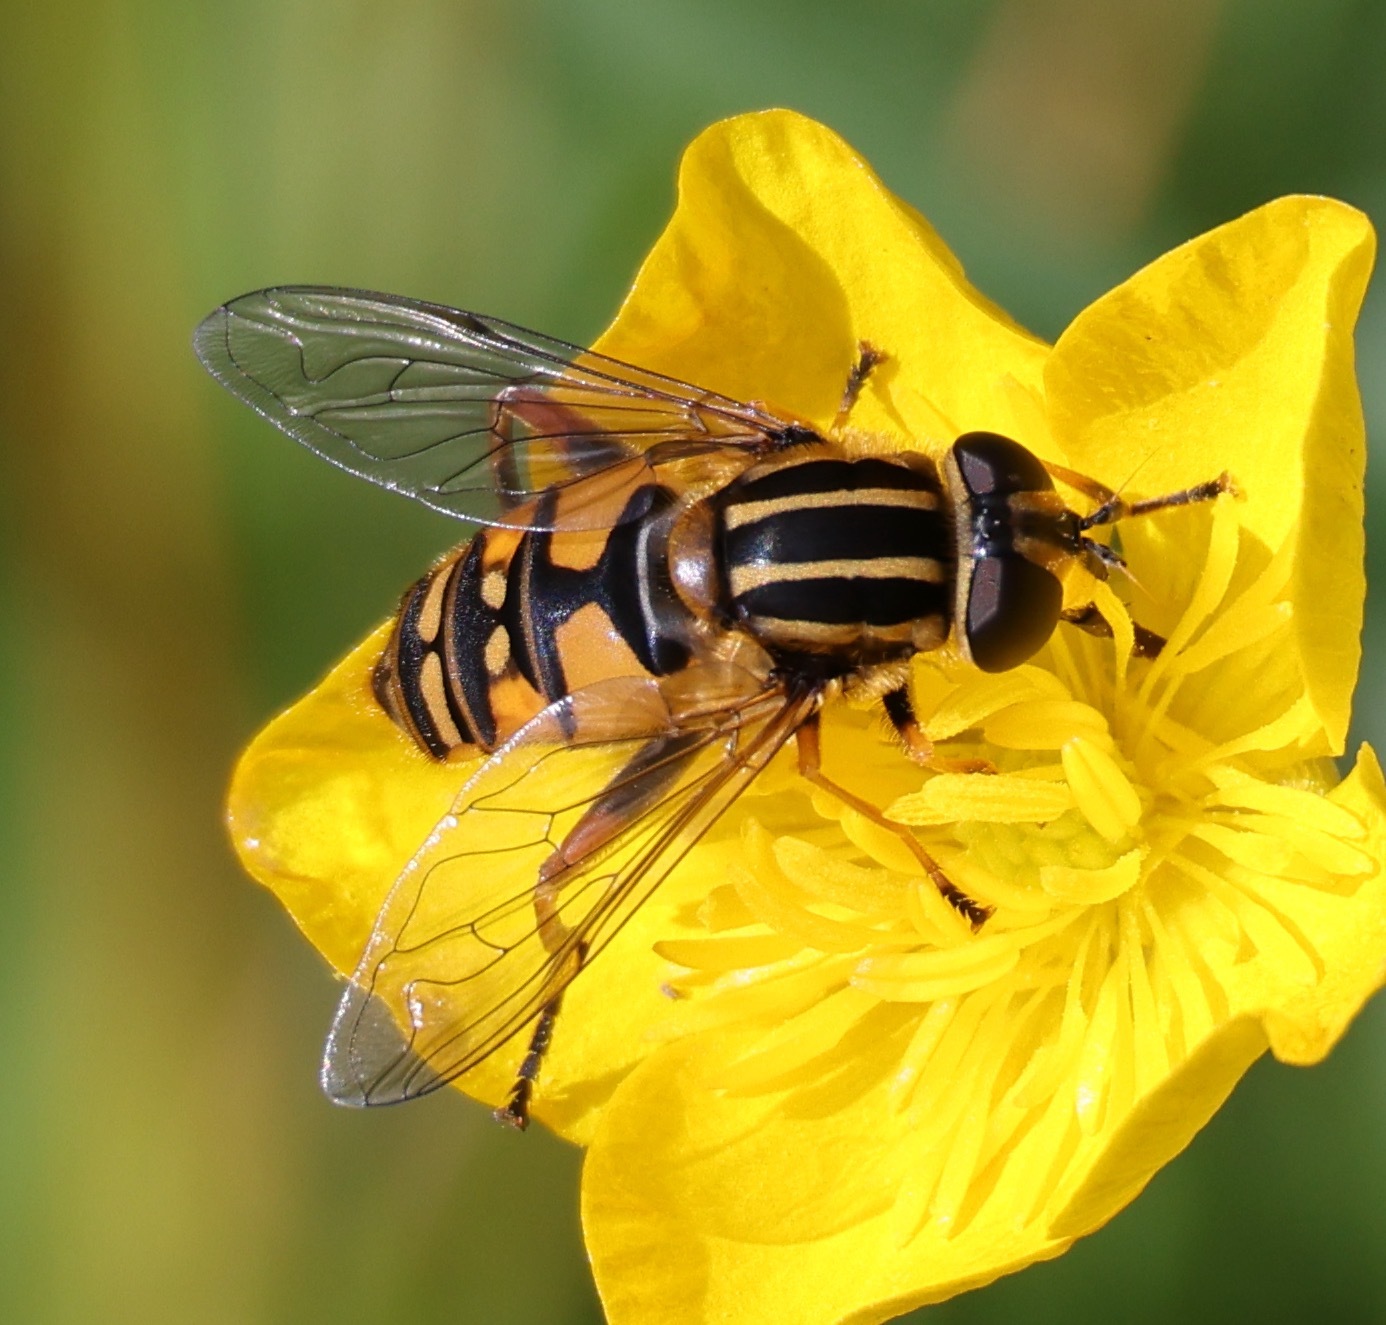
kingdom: Animalia
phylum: Arthropoda
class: Insecta
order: Diptera
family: Syrphidae
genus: Helophilus
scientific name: Helophilus pendulus
